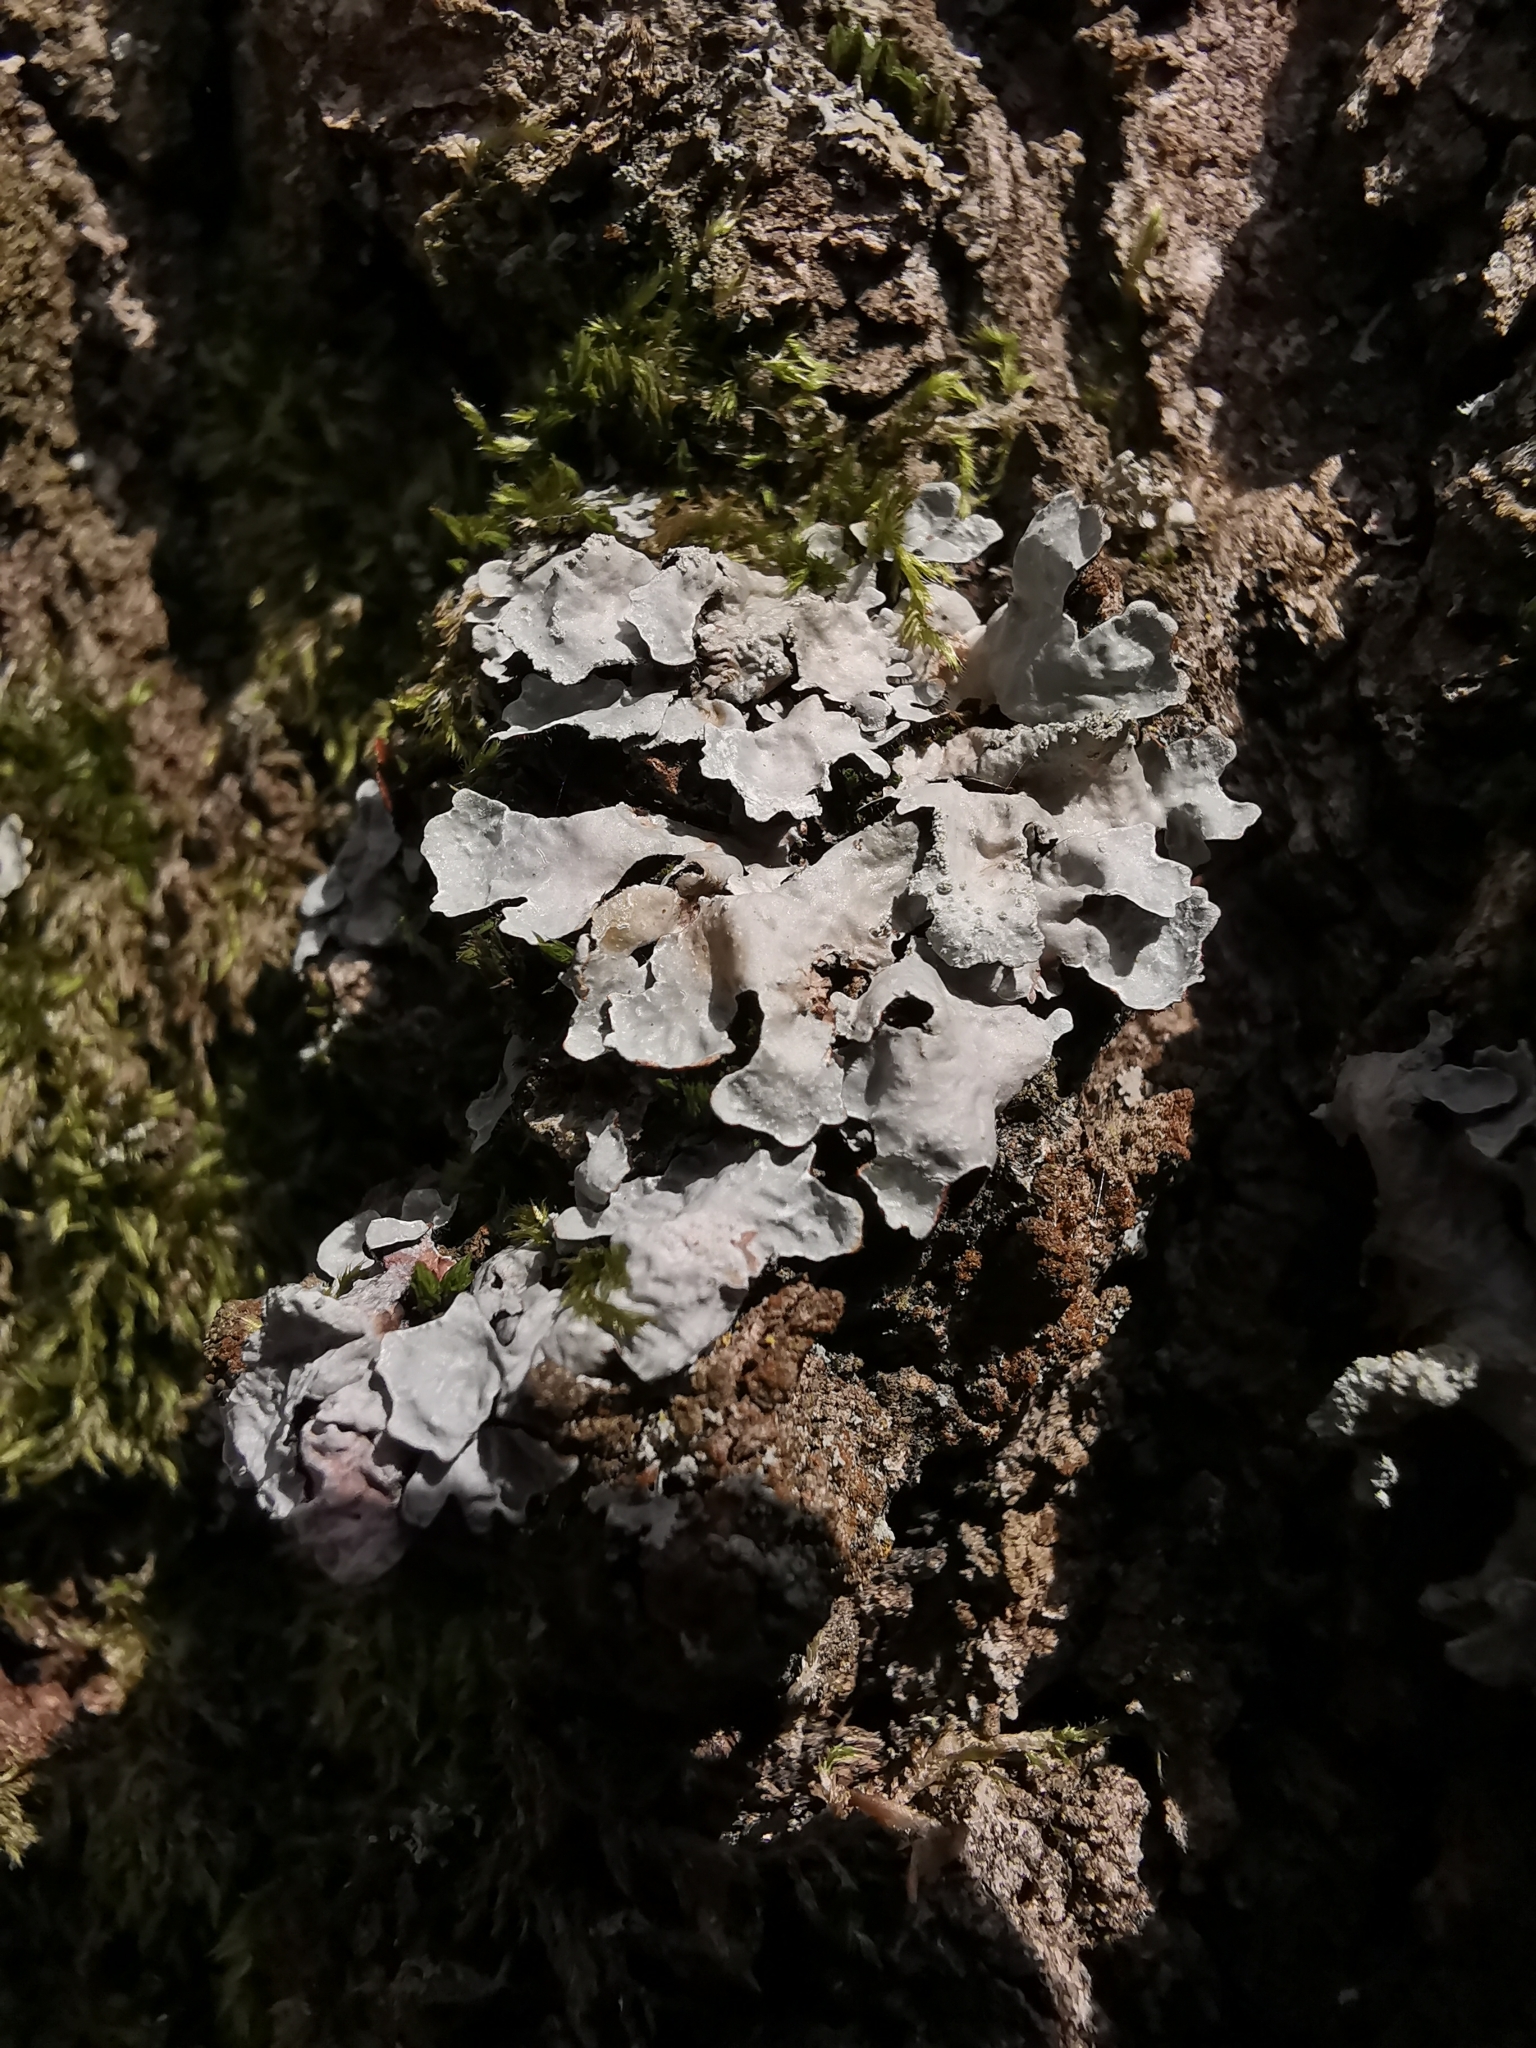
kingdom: Fungi
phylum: Ascomycota
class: Lecanoromycetes
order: Lecanorales
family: Parmeliaceae
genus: Parmelia
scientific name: Parmelia sulcata
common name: Netted shield lichen
